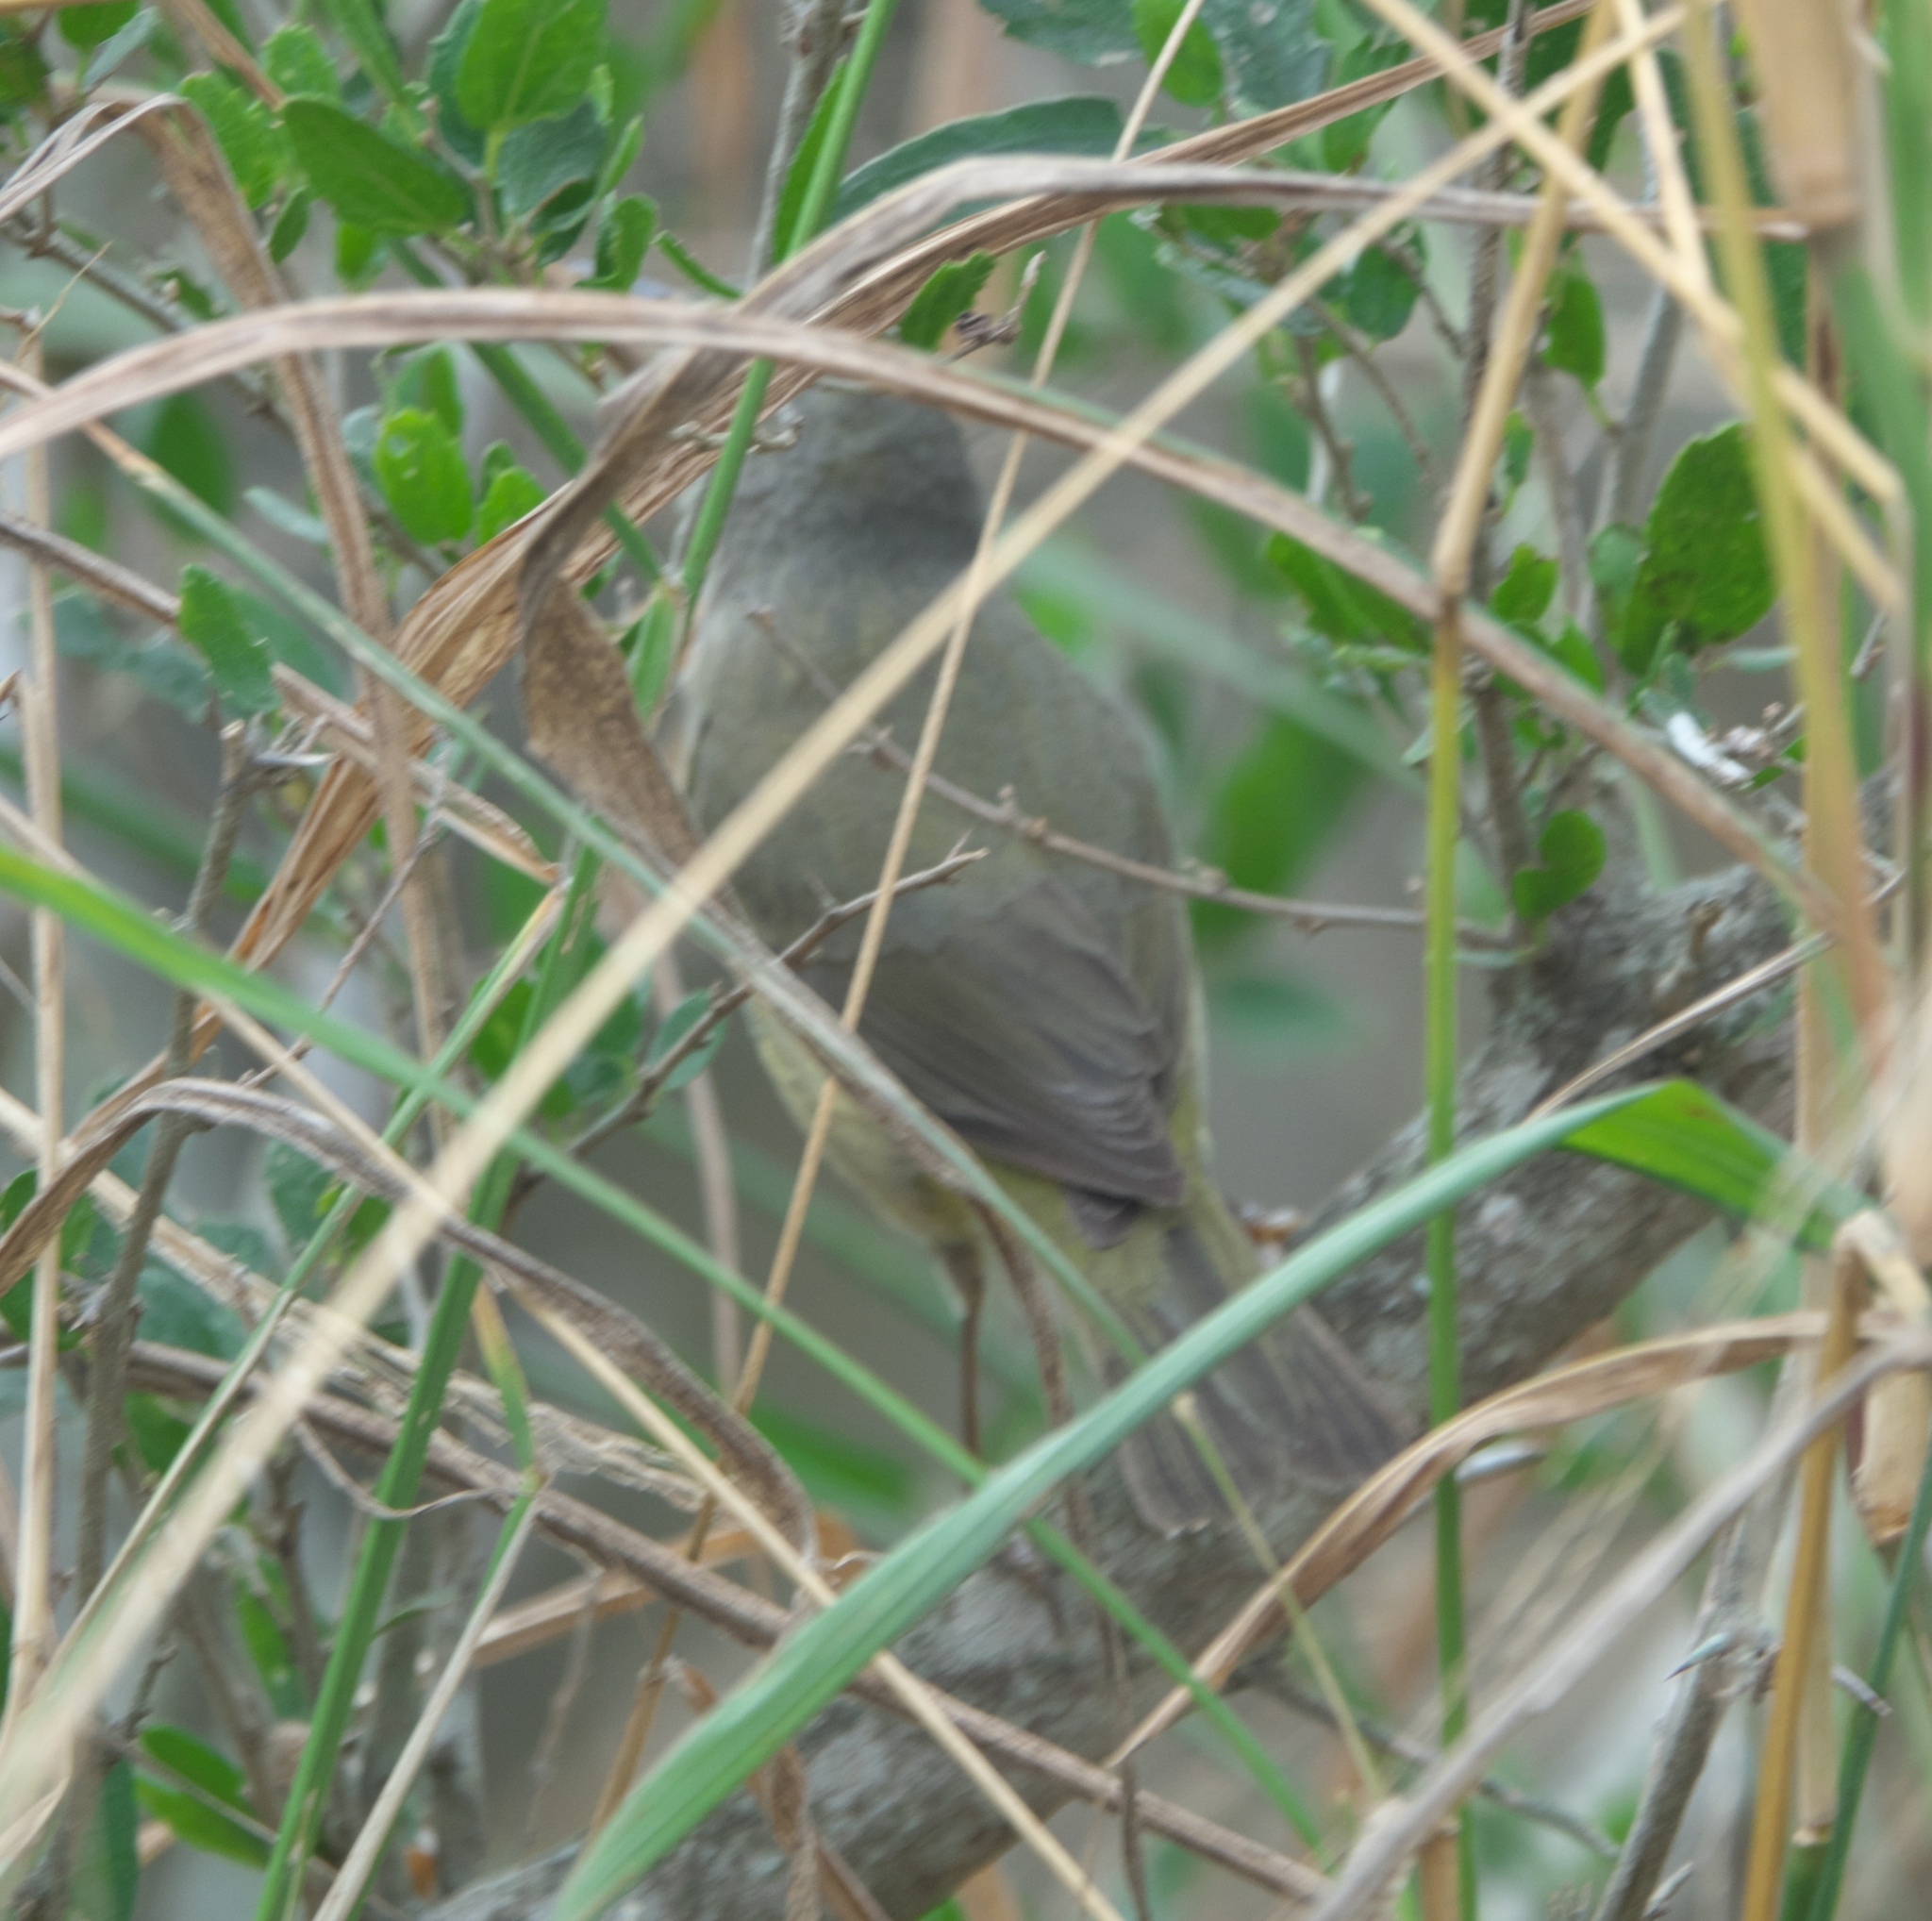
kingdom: Animalia
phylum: Chordata
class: Aves
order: Passeriformes
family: Regulidae
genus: Regulus
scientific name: Regulus calendula
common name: Ruby-crowned kinglet
